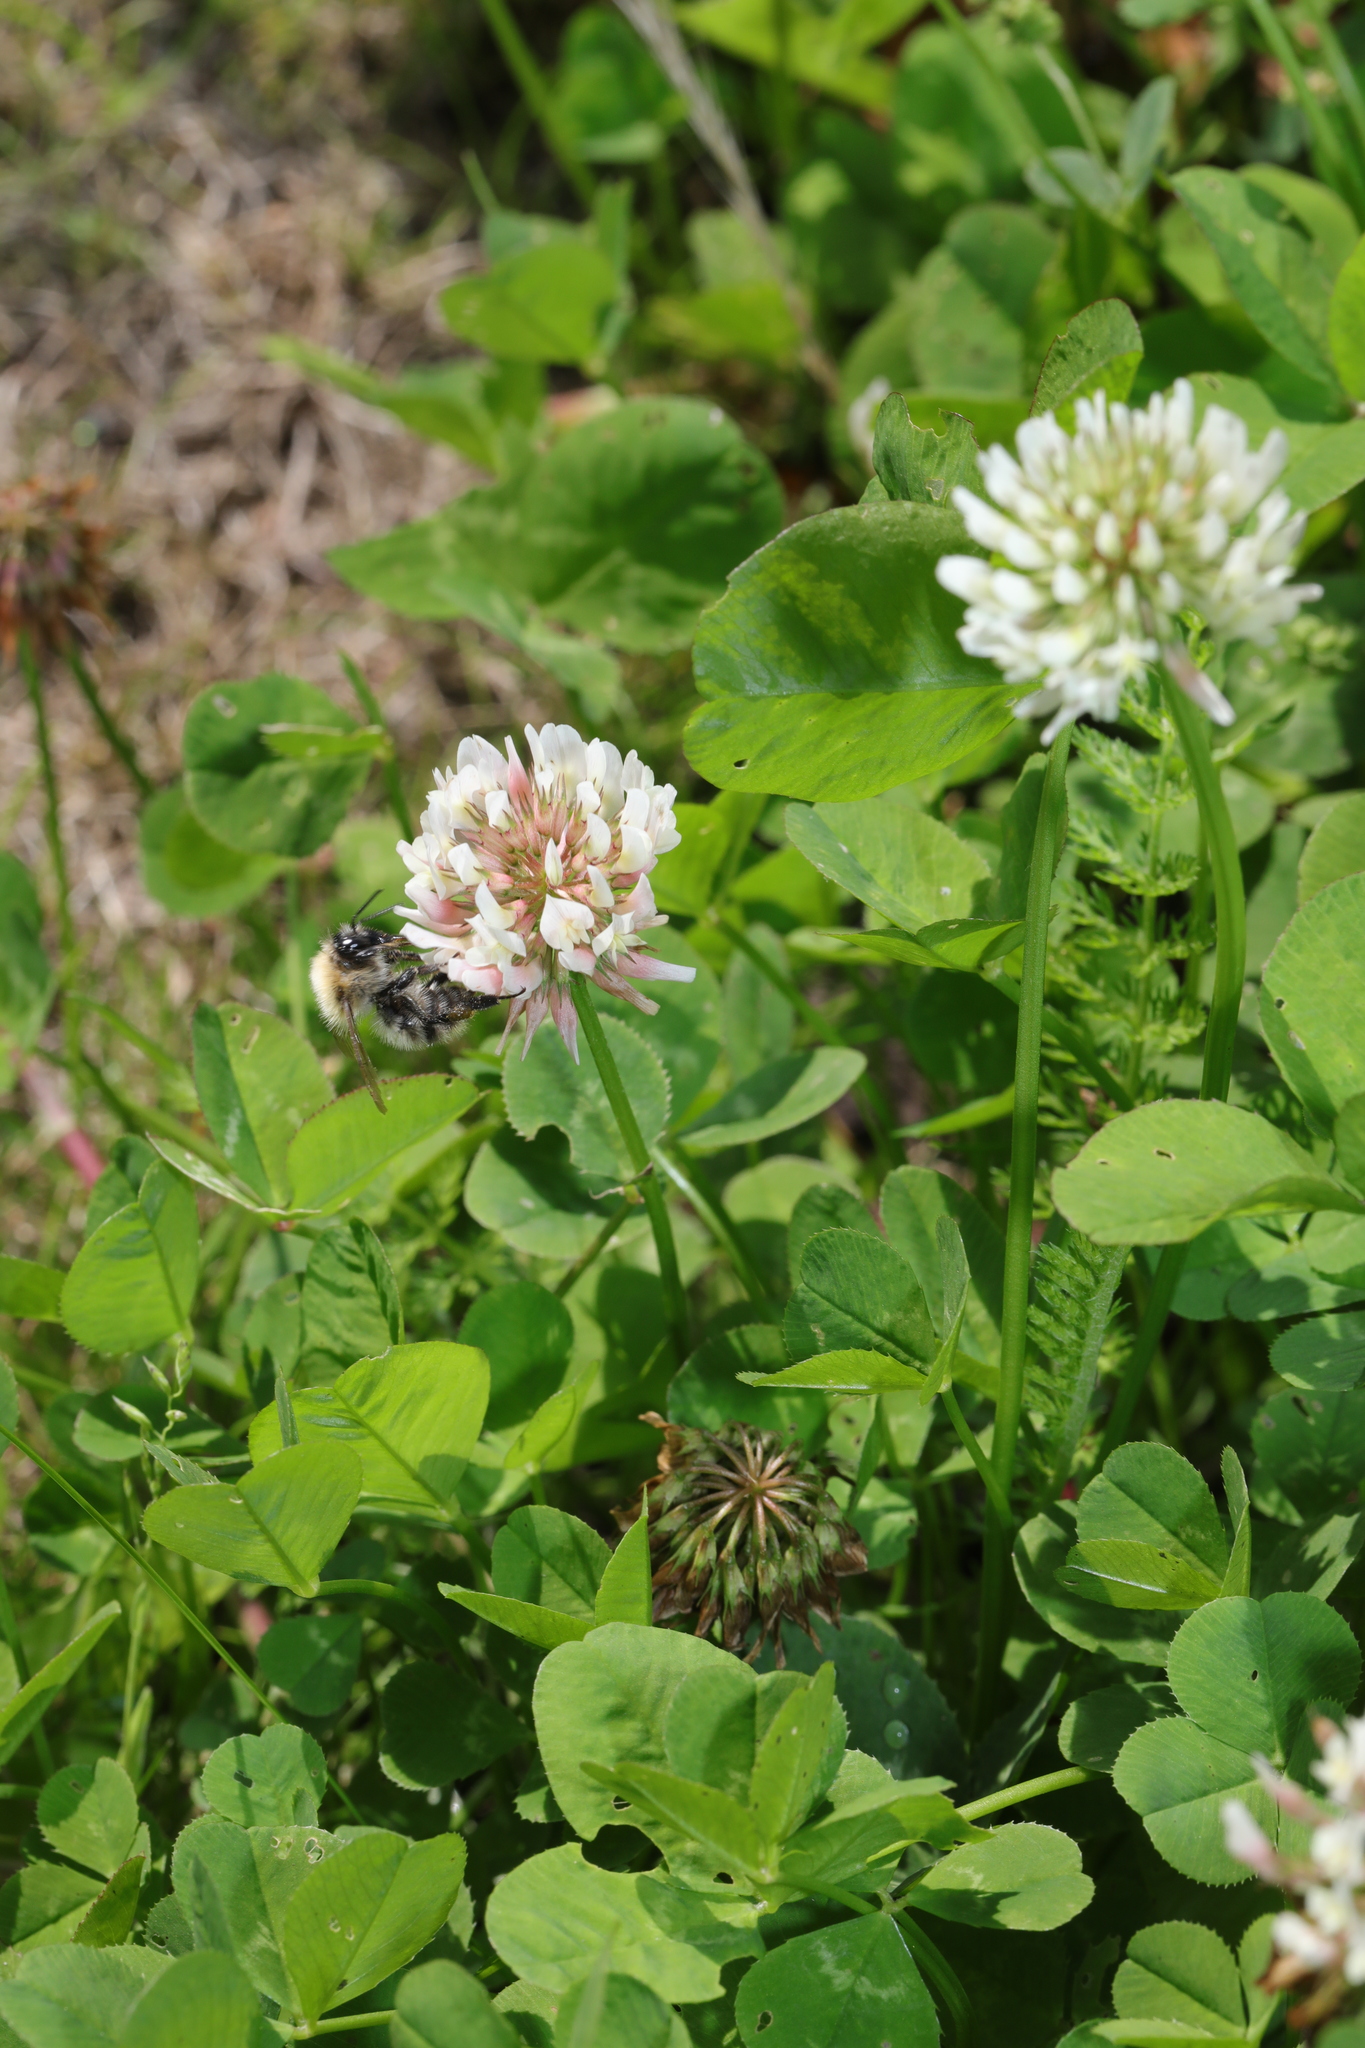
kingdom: Plantae
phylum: Tracheophyta
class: Magnoliopsida
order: Fabales
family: Fabaceae
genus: Trifolium
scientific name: Trifolium repens
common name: White clover
